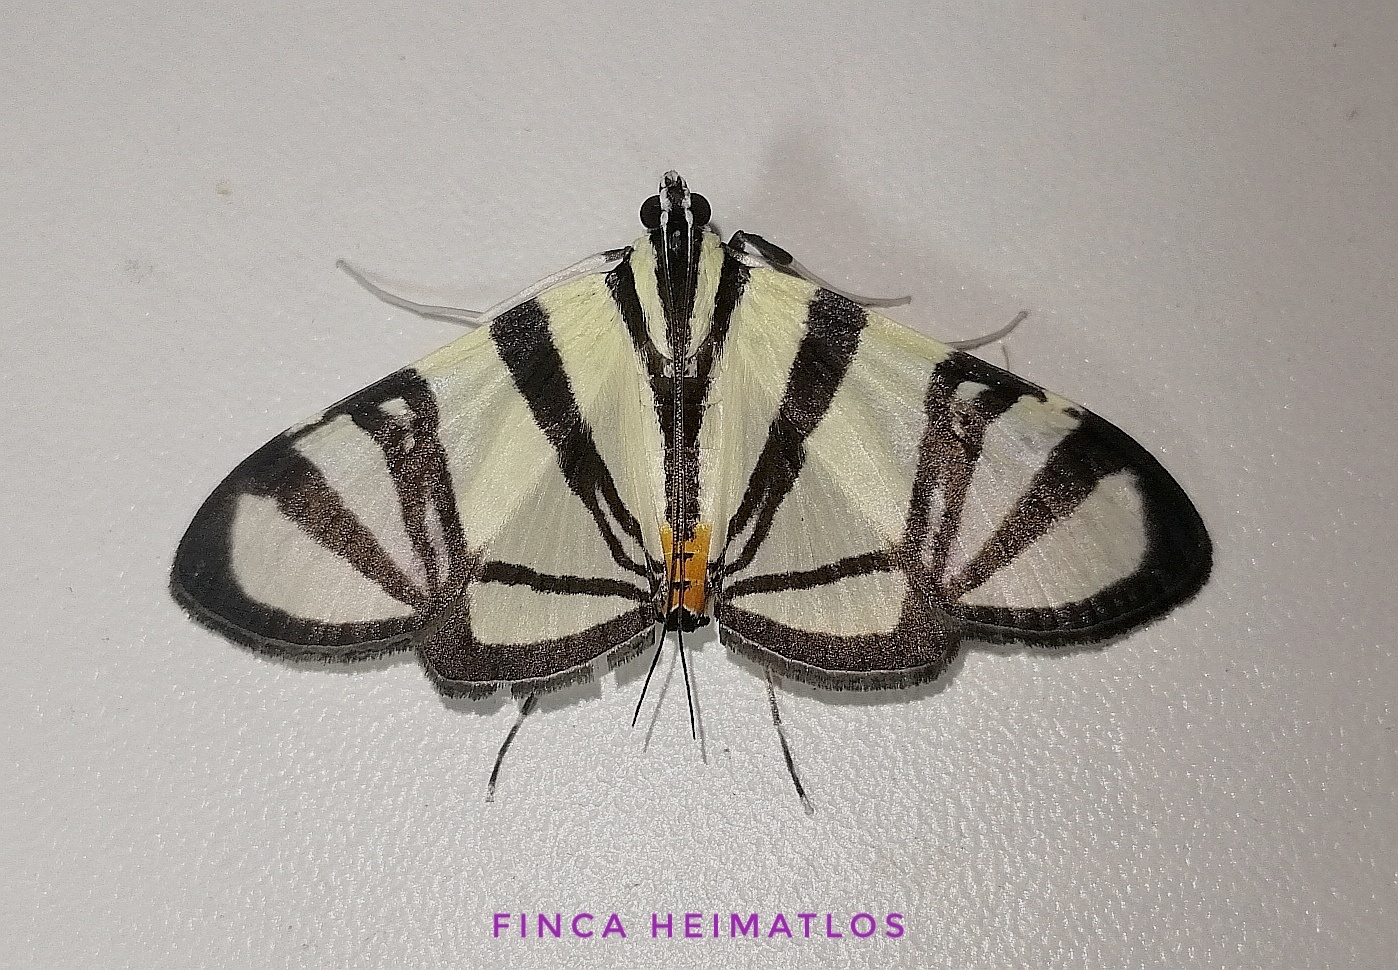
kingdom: Animalia
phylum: Arthropoda
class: Insecta
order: Lepidoptera
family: Crambidae
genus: Conchylodes
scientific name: Conchylodes nolckenialis
